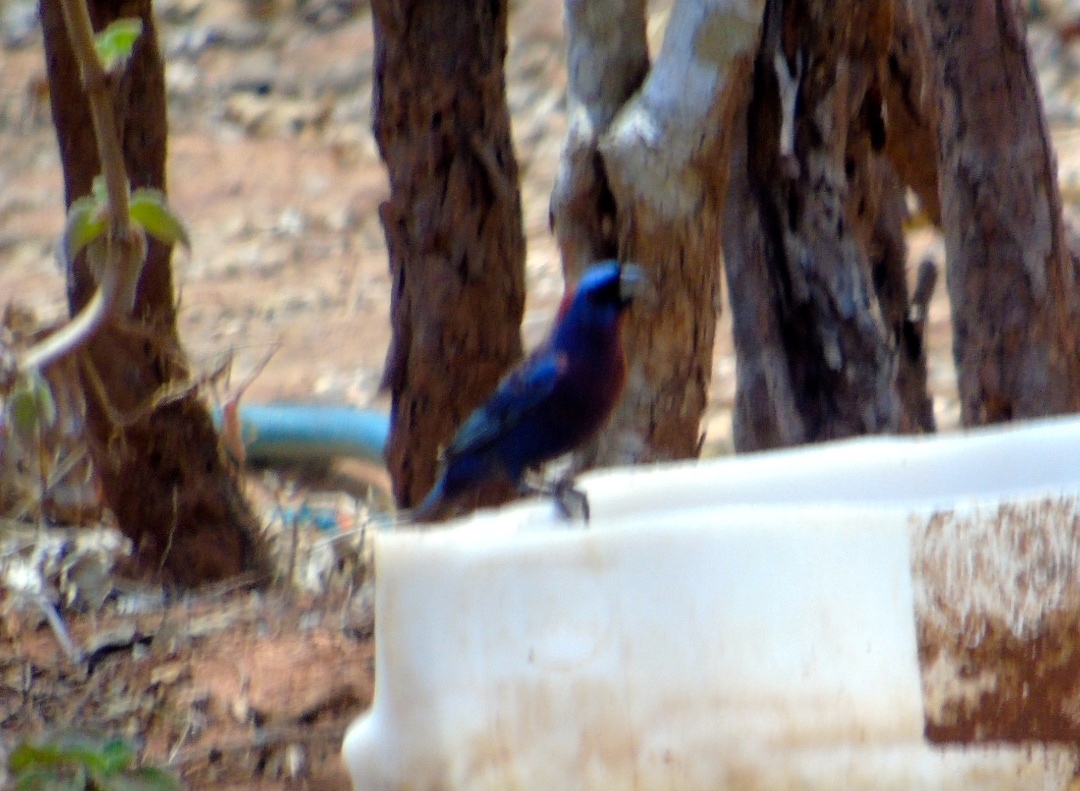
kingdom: Animalia
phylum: Chordata
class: Aves
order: Passeriformes
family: Cardinalidae
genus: Passerina
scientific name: Passerina versicolor
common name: Varied bunting
